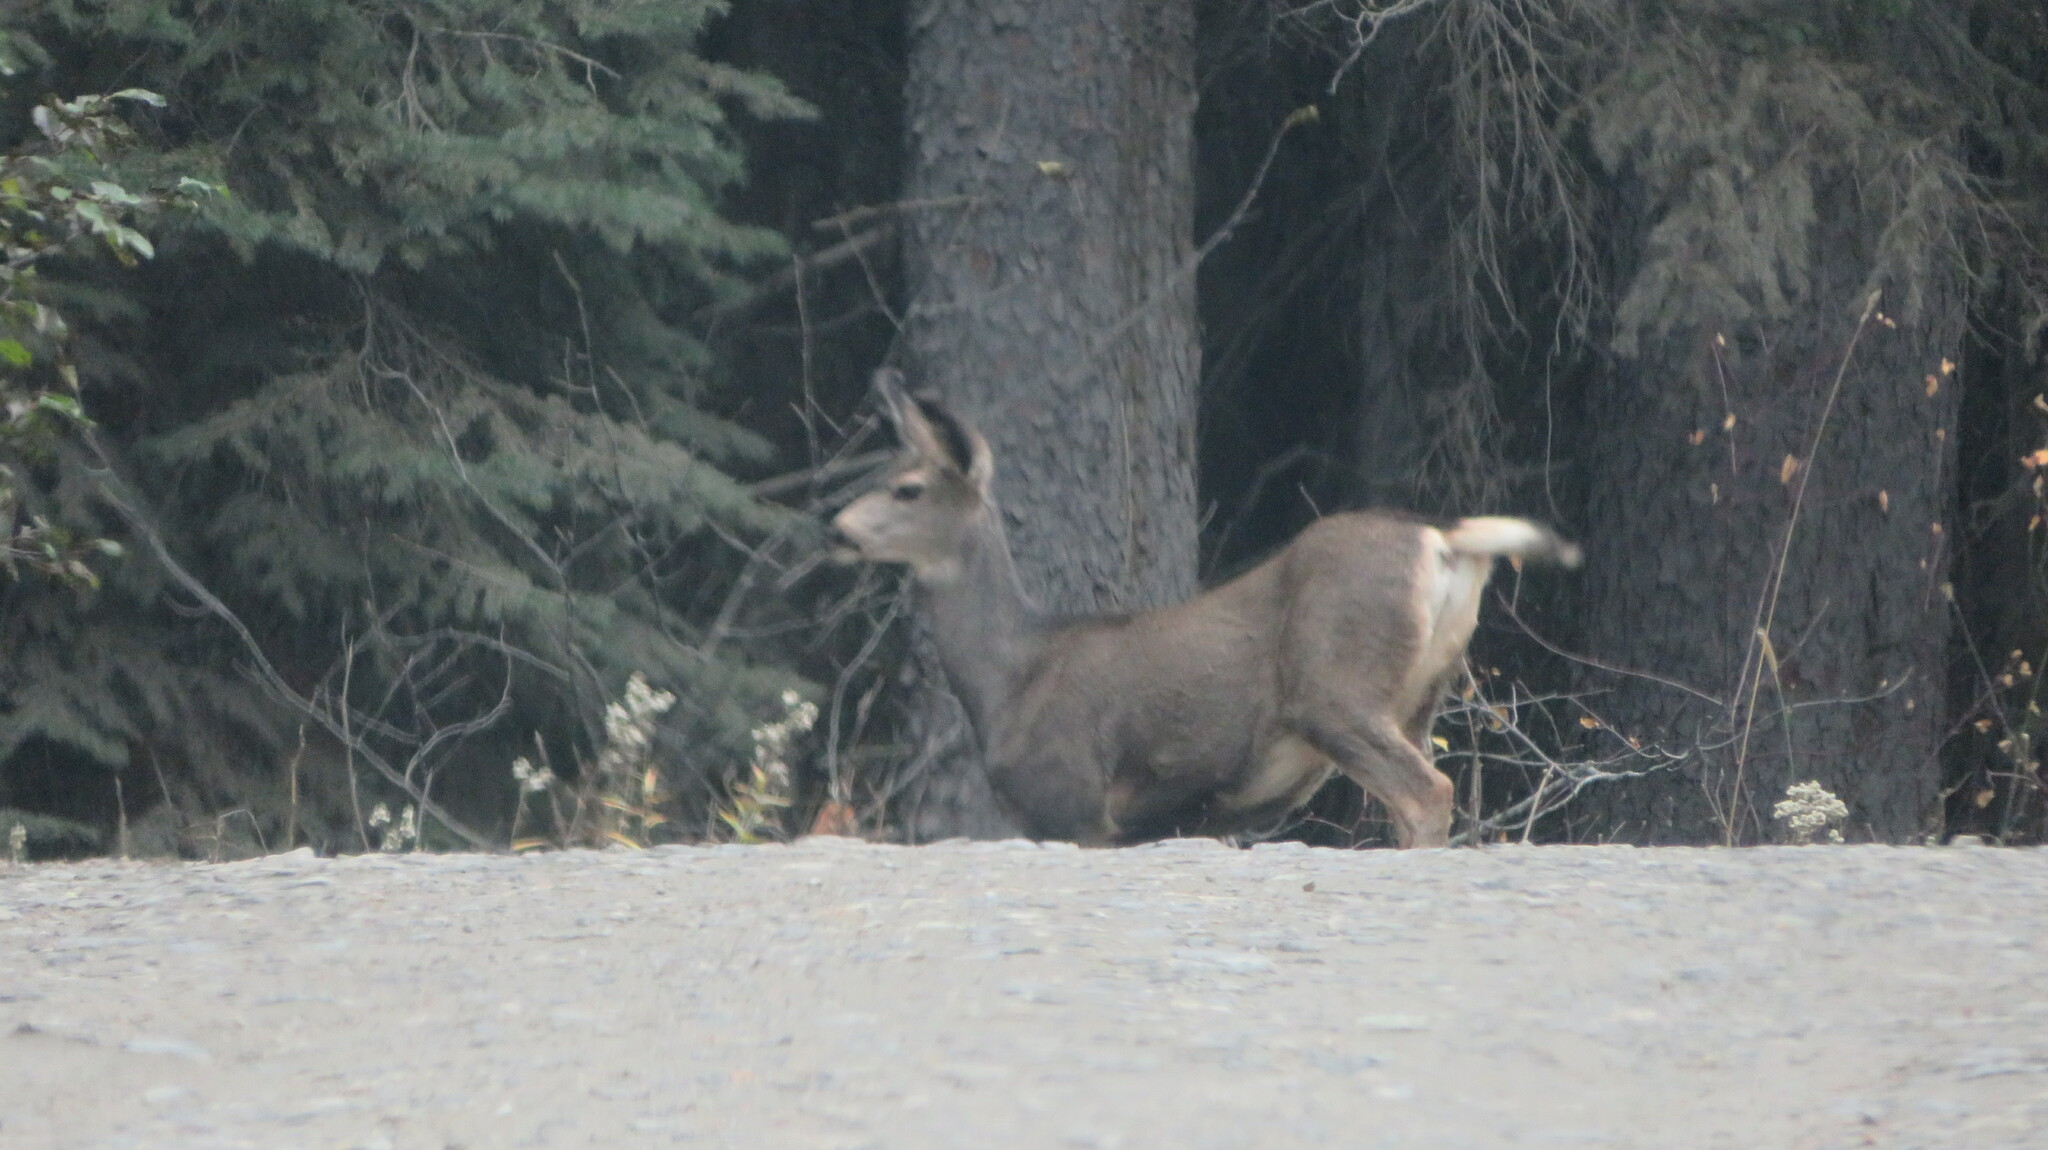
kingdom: Animalia
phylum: Chordata
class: Mammalia
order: Artiodactyla
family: Cervidae
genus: Odocoileus
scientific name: Odocoileus hemionus
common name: Mule deer
